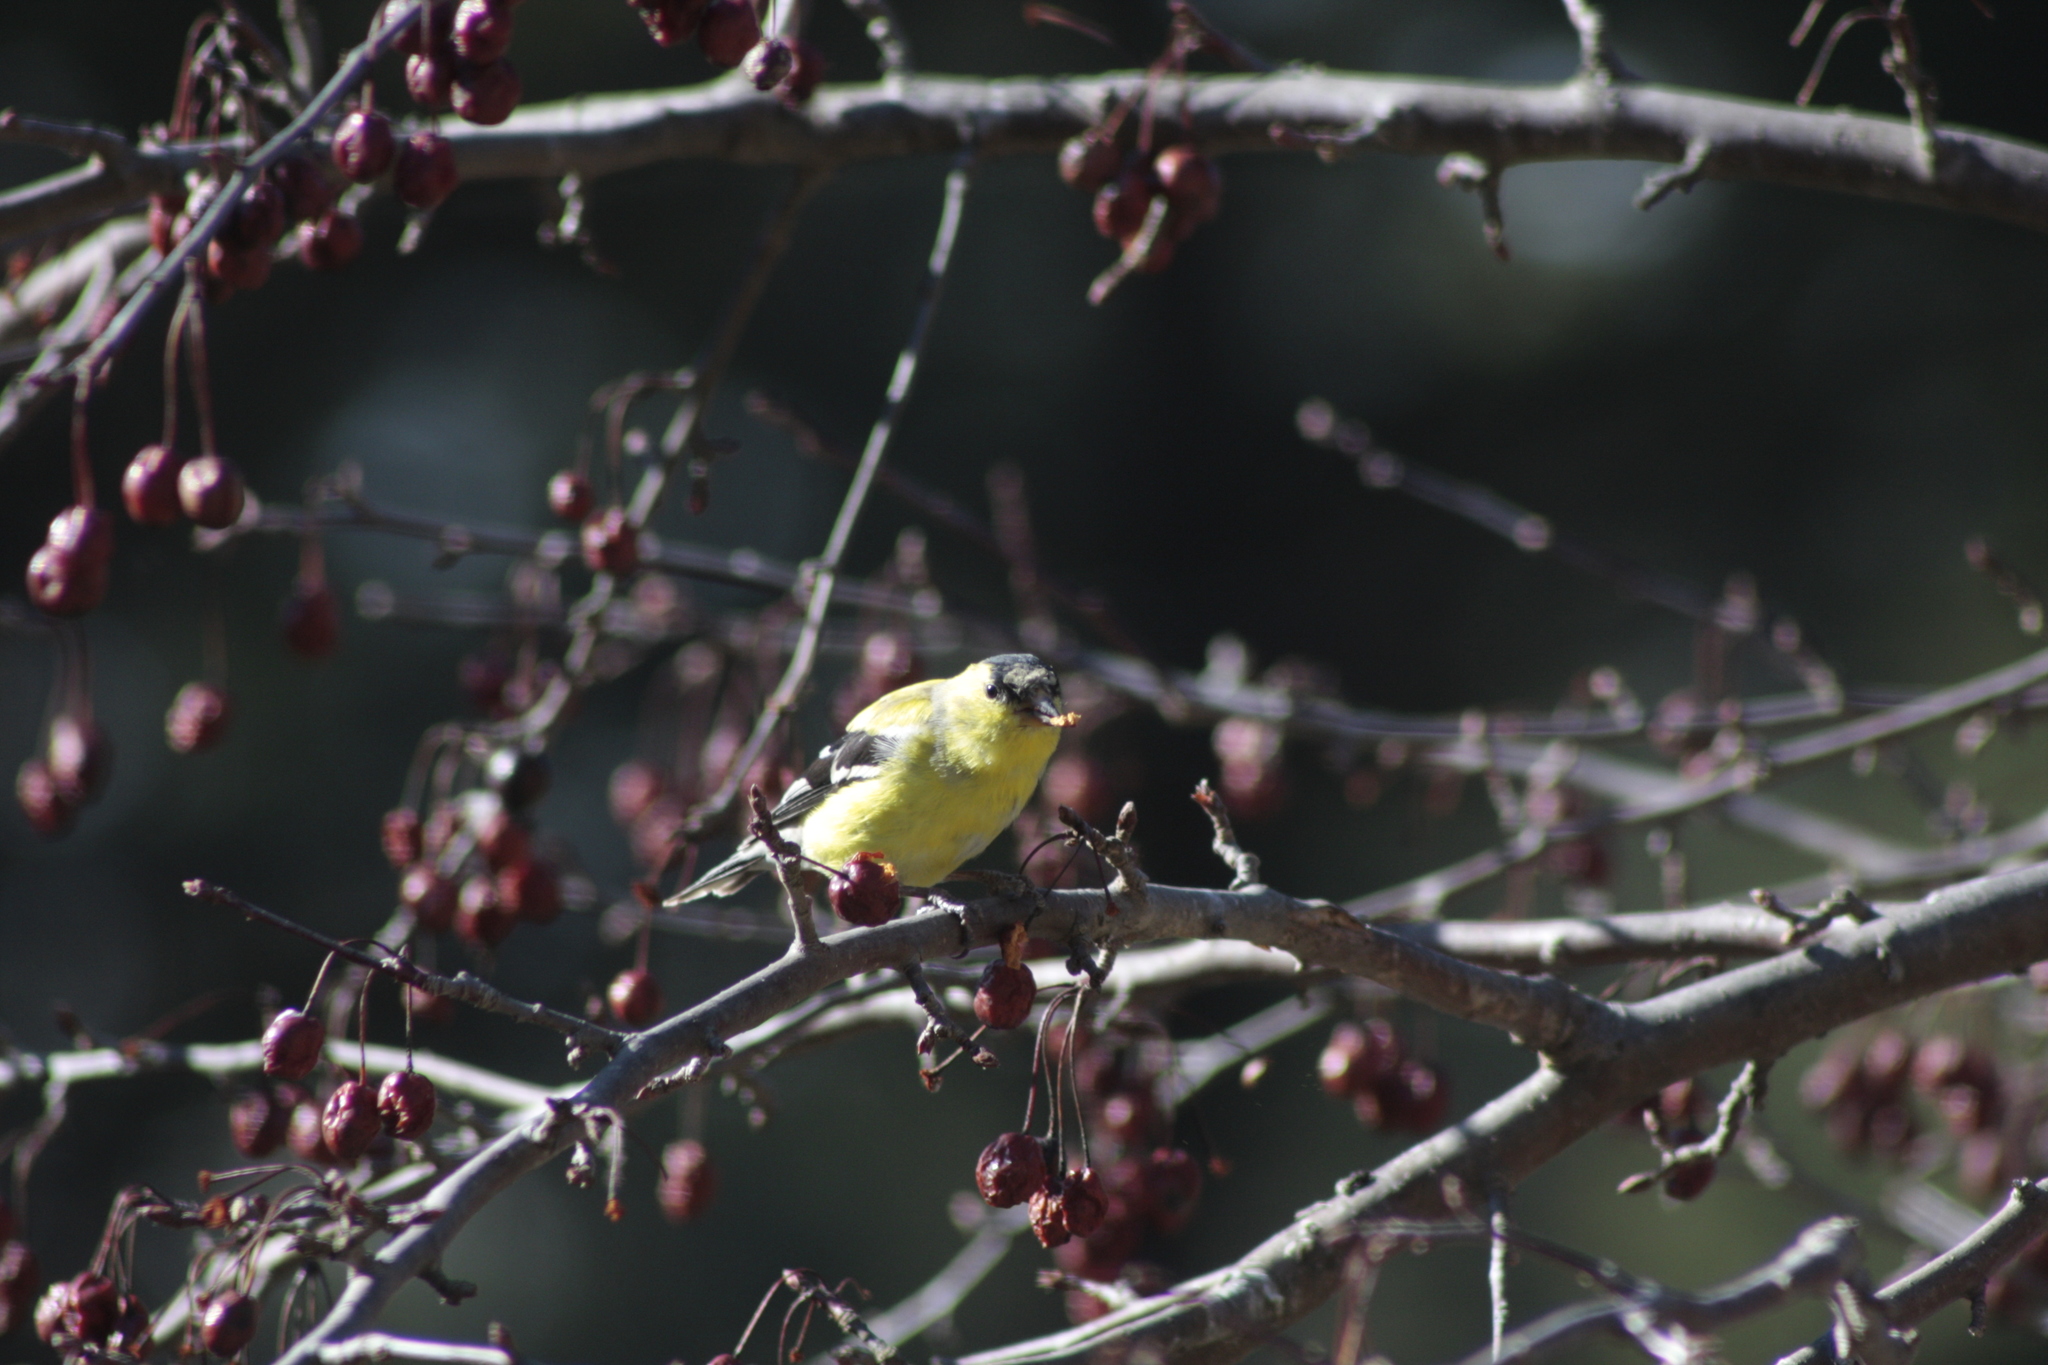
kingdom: Animalia
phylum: Chordata
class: Aves
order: Passeriformes
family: Fringillidae
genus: Spinus
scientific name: Spinus tristis
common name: American goldfinch
